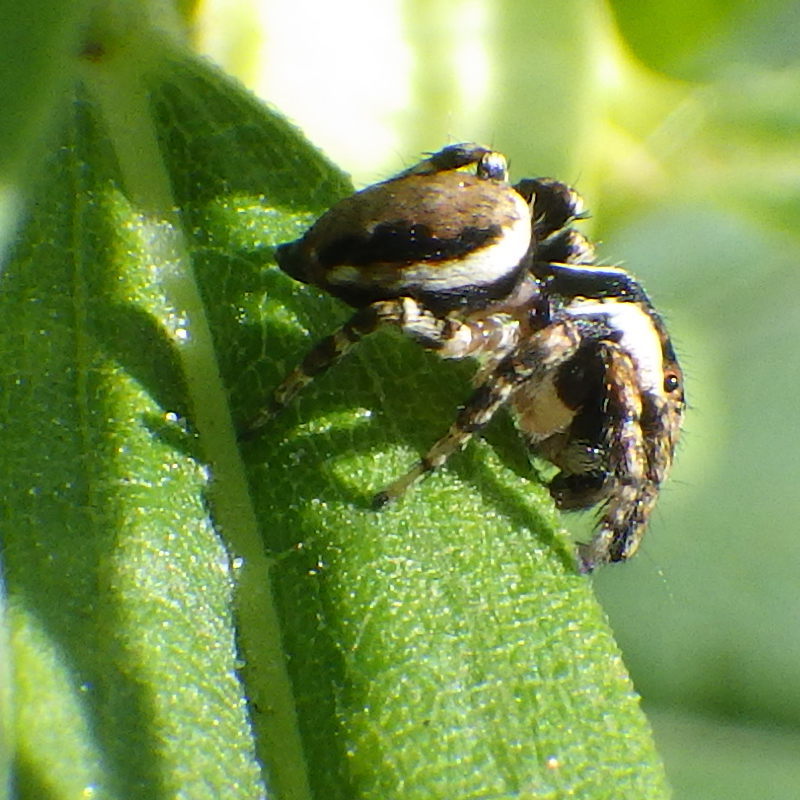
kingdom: Animalia
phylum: Arthropoda
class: Arachnida
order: Araneae
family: Salticidae
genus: Evarcha
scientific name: Evarcha hoyi
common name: Hoy's jumping spider
